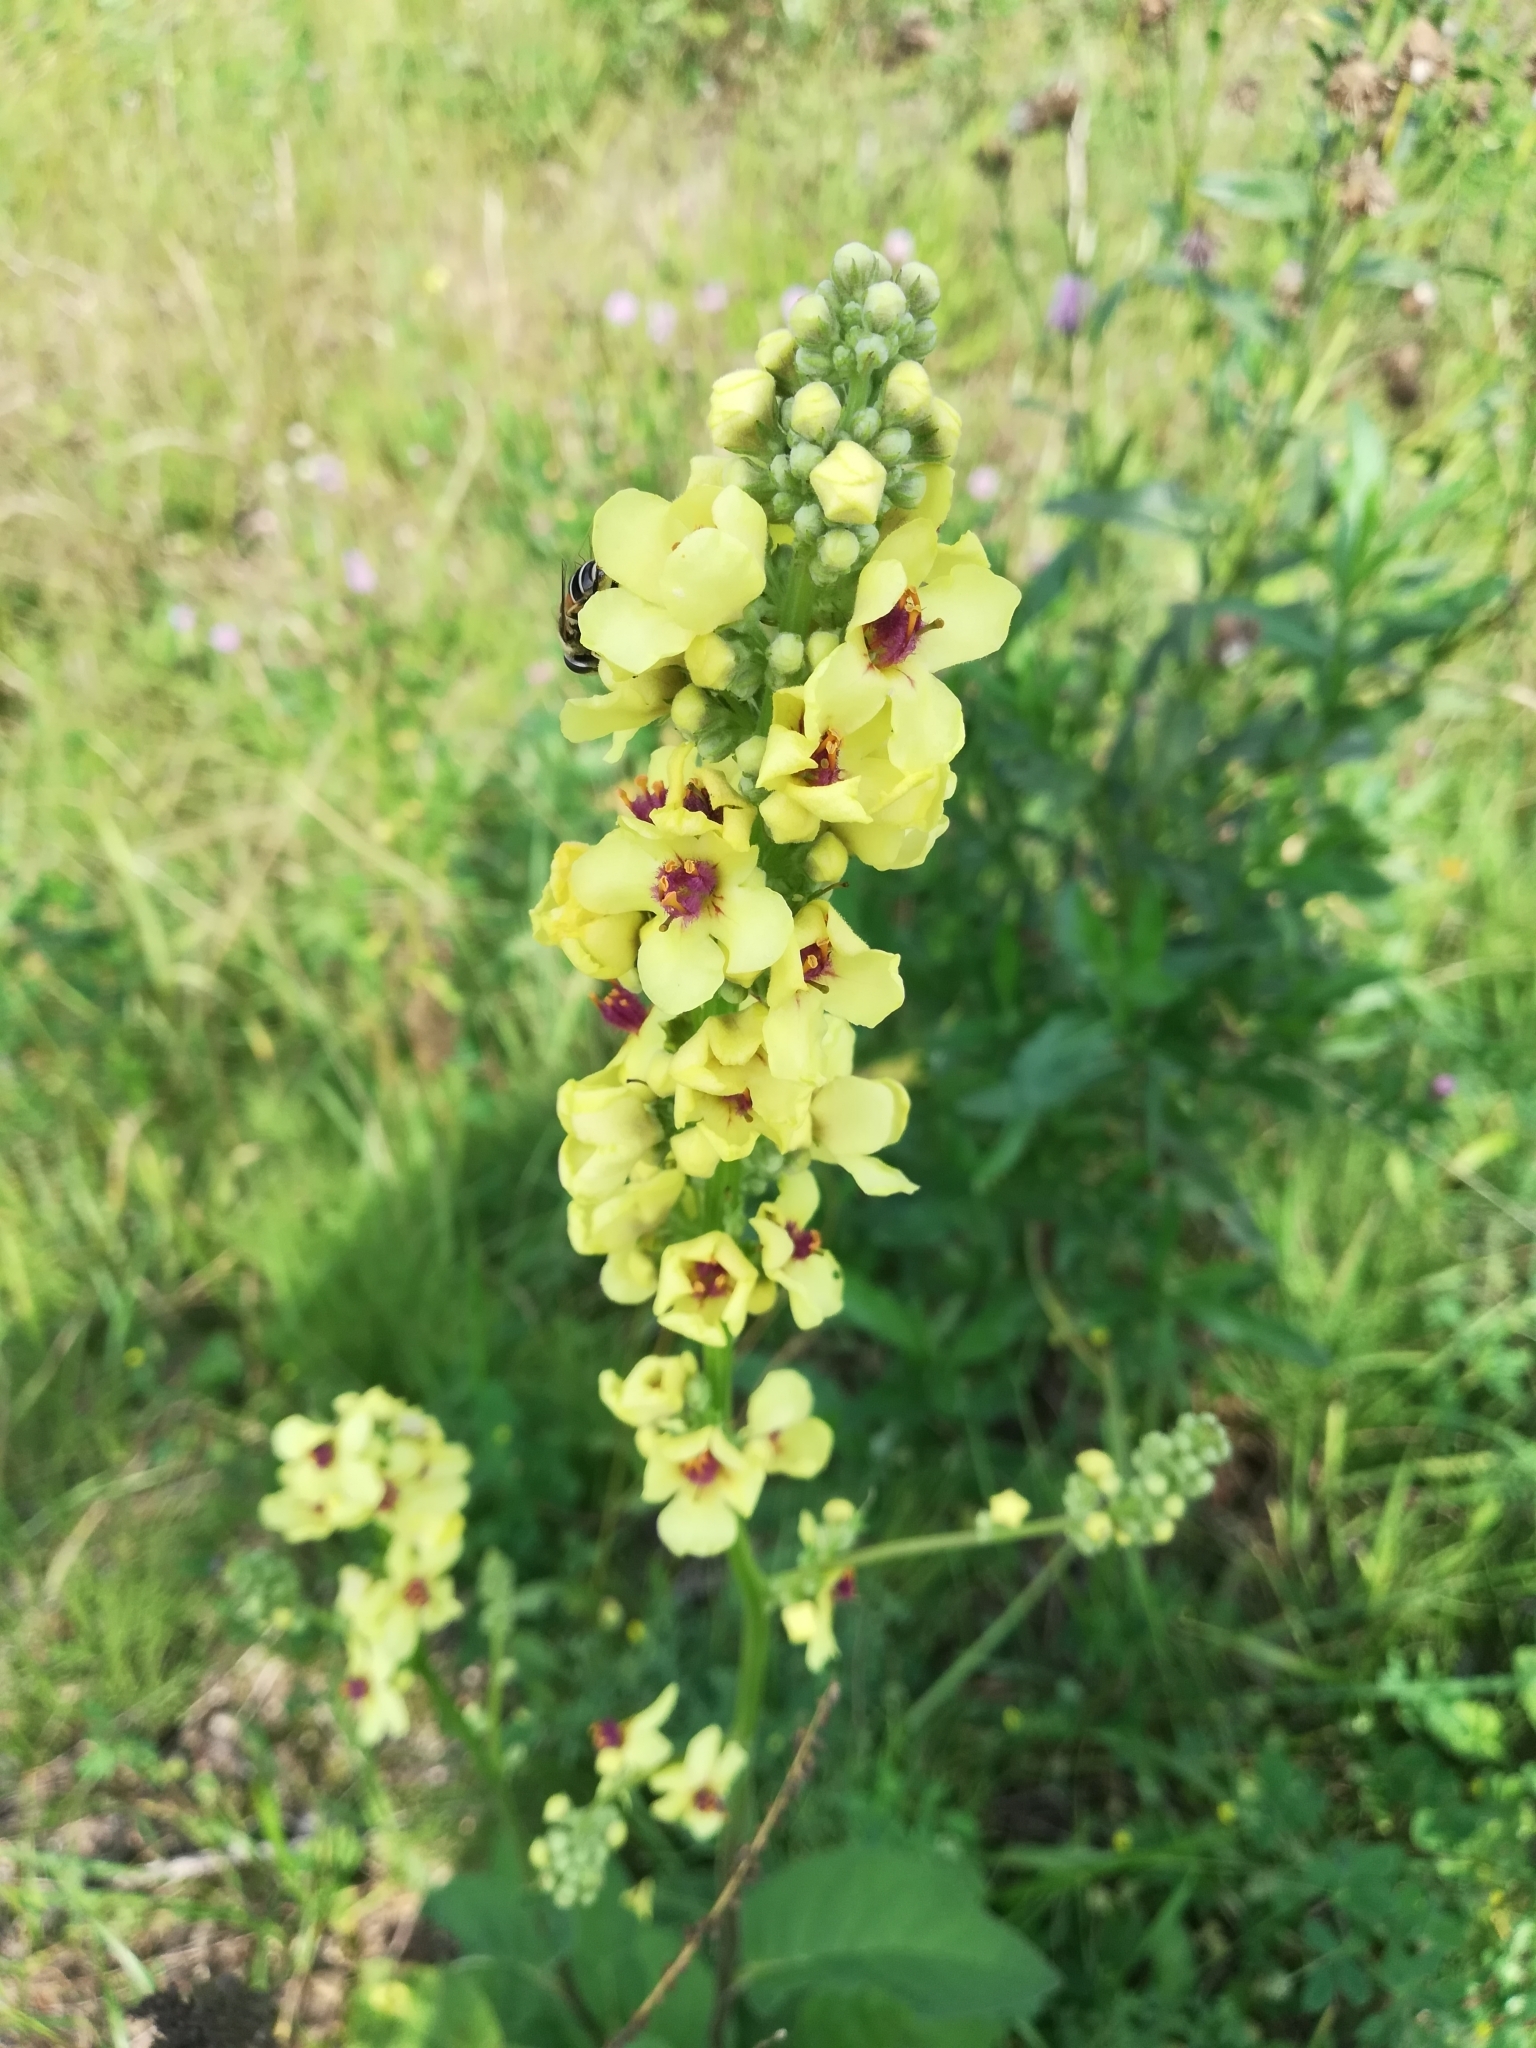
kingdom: Plantae
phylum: Tracheophyta
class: Magnoliopsida
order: Lamiales
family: Scrophulariaceae
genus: Verbascum
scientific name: Verbascum nigrum
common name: Dark mullein
